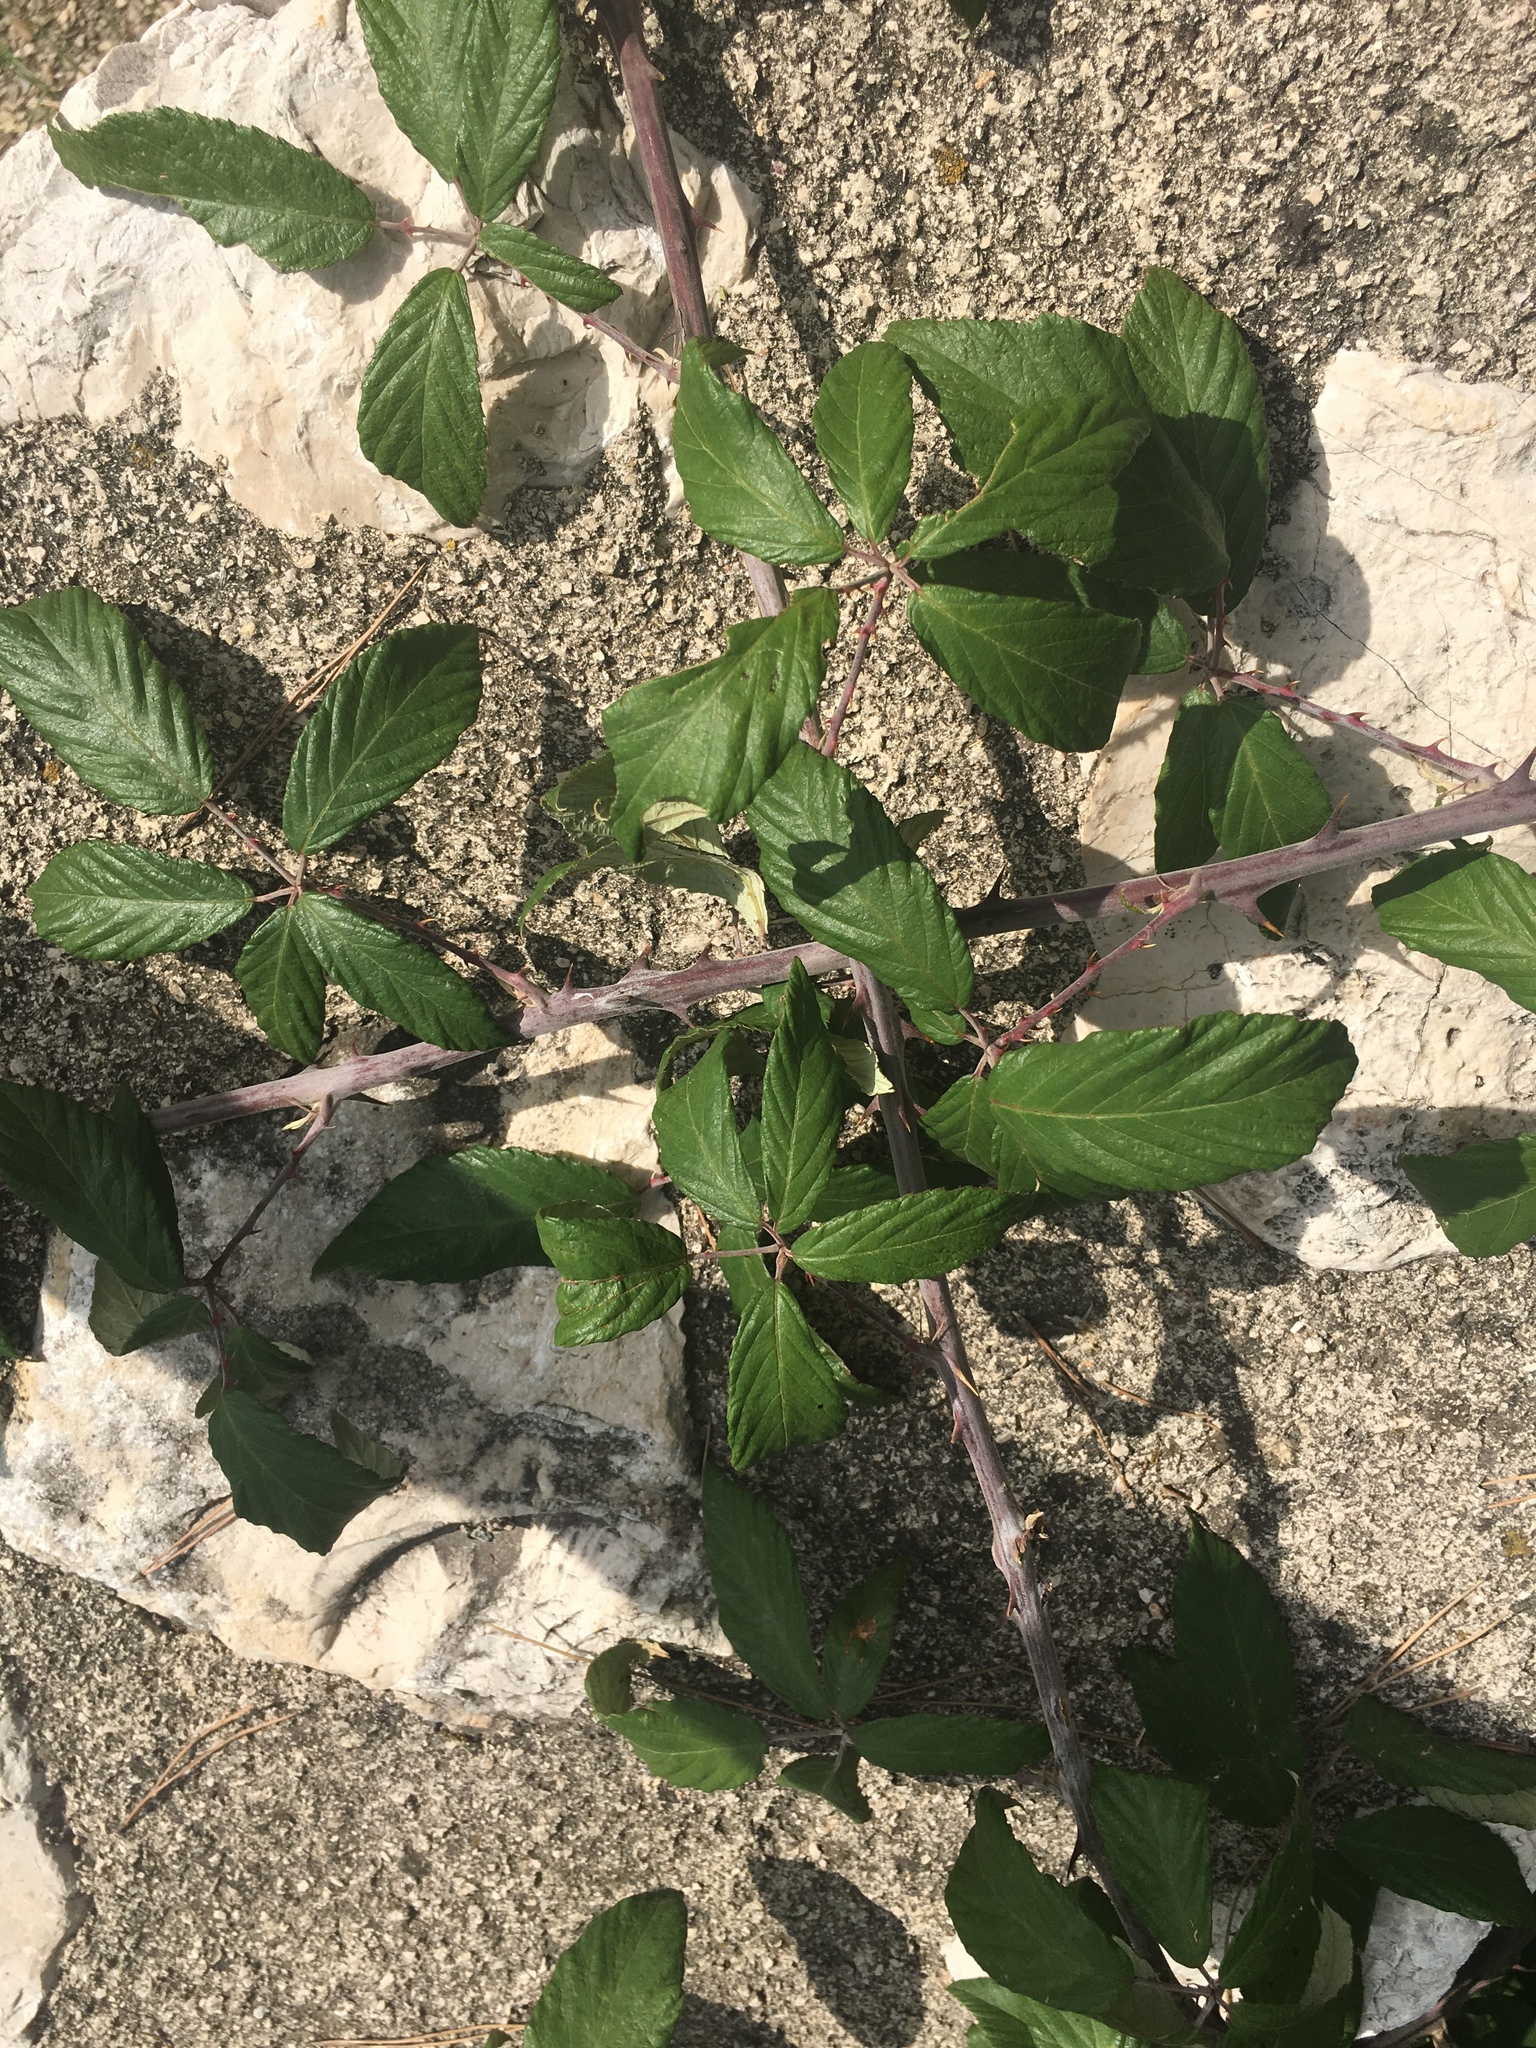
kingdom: Plantae
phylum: Tracheophyta
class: Magnoliopsida
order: Rosales
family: Rosaceae
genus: Rubus
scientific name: Rubus ulmifolius
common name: Elmleaf blackberry
